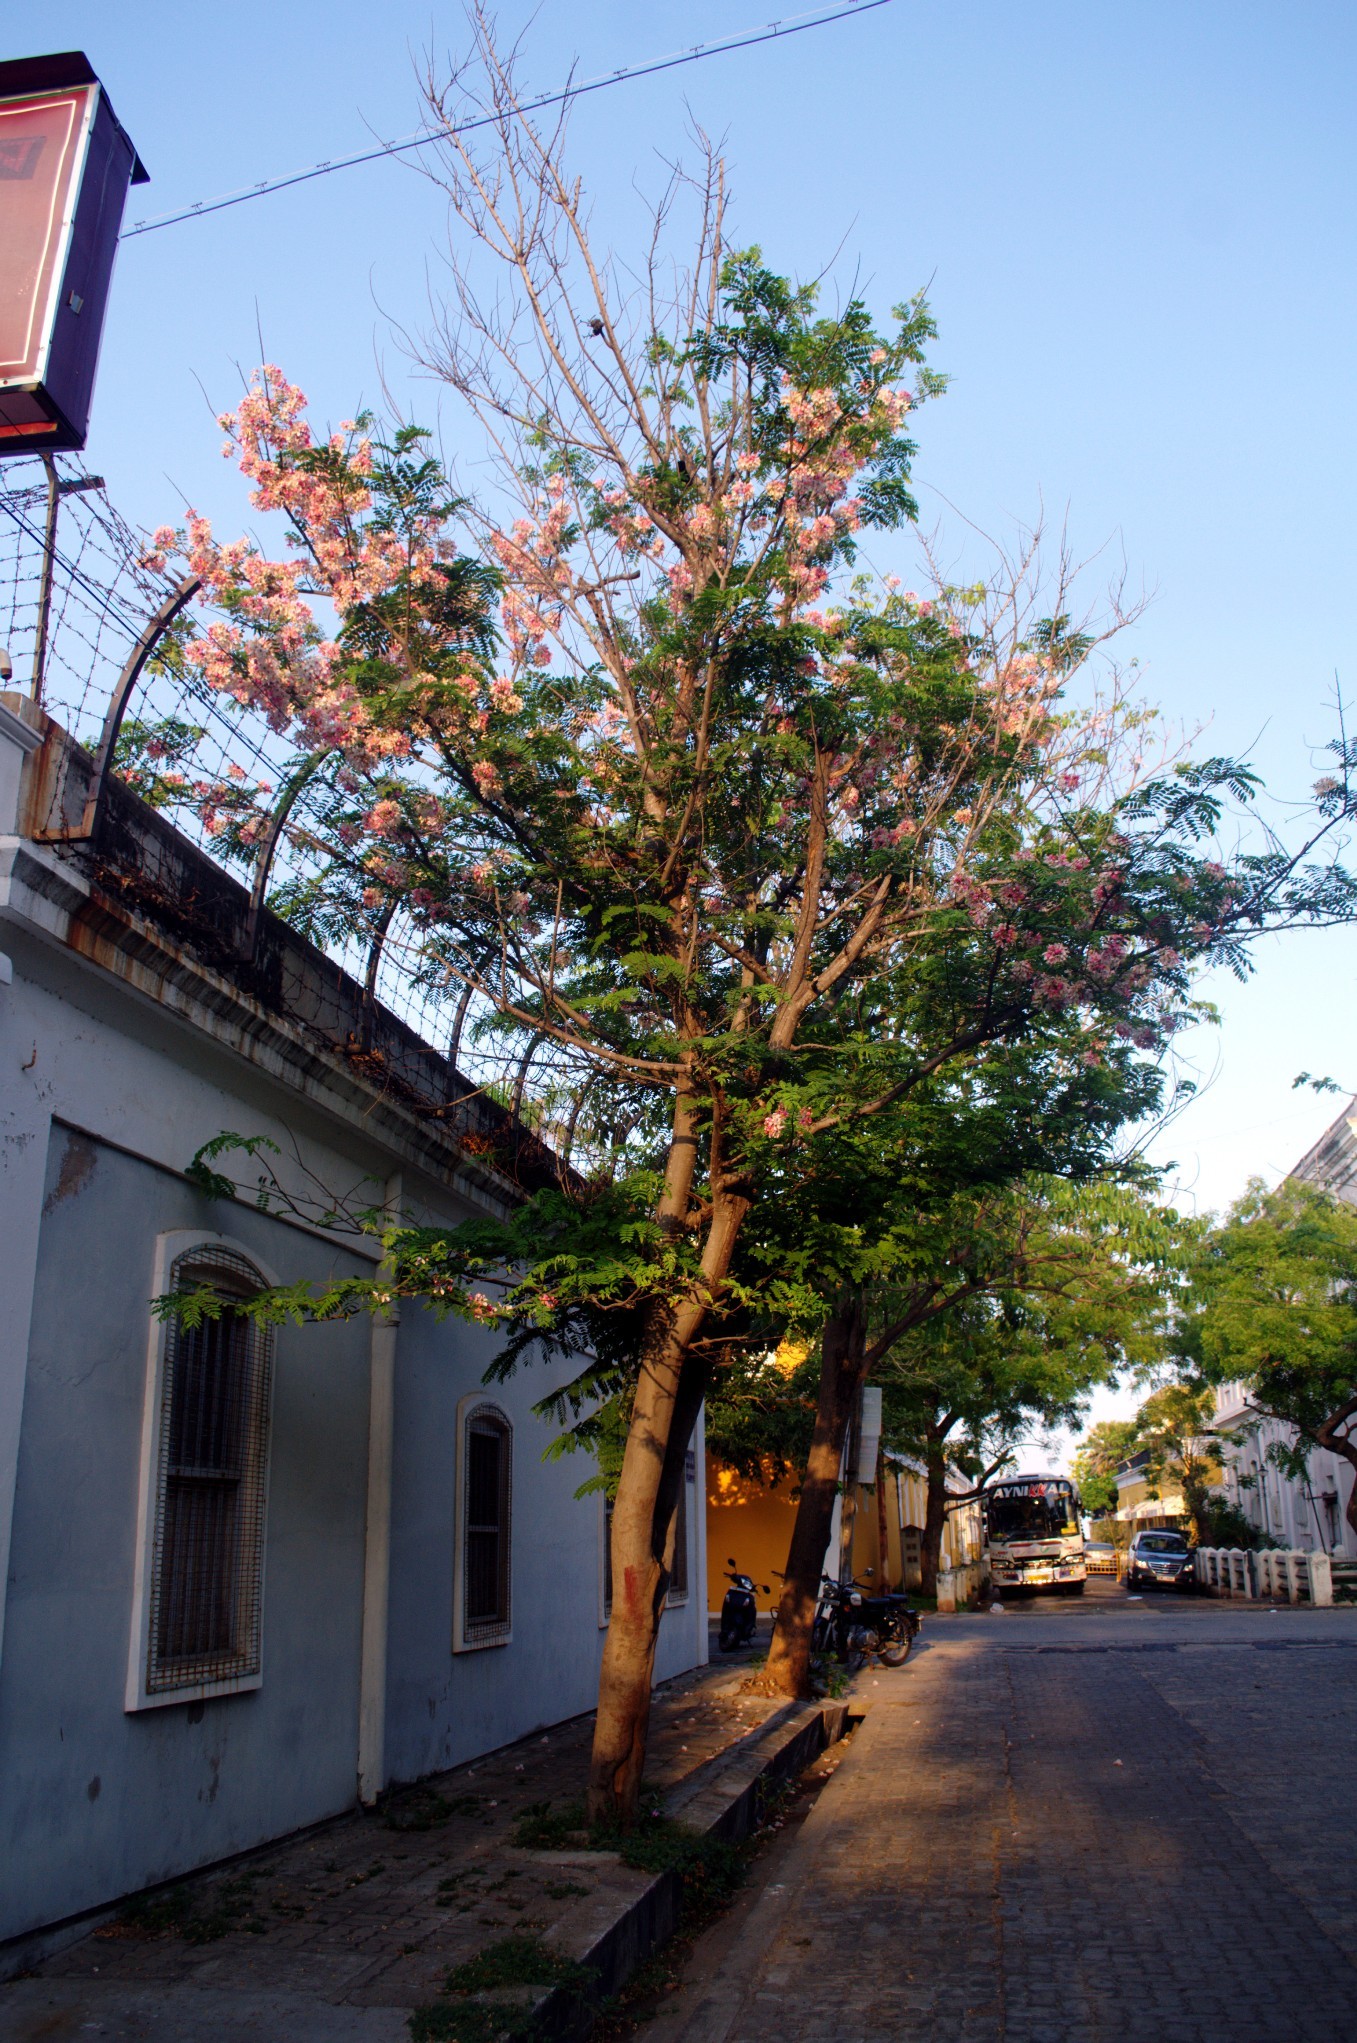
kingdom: Plantae
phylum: Tracheophyta
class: Magnoliopsida
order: Fabales
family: Fabaceae
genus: Cassia
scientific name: Cassia grandis
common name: Appleblossom cassia
